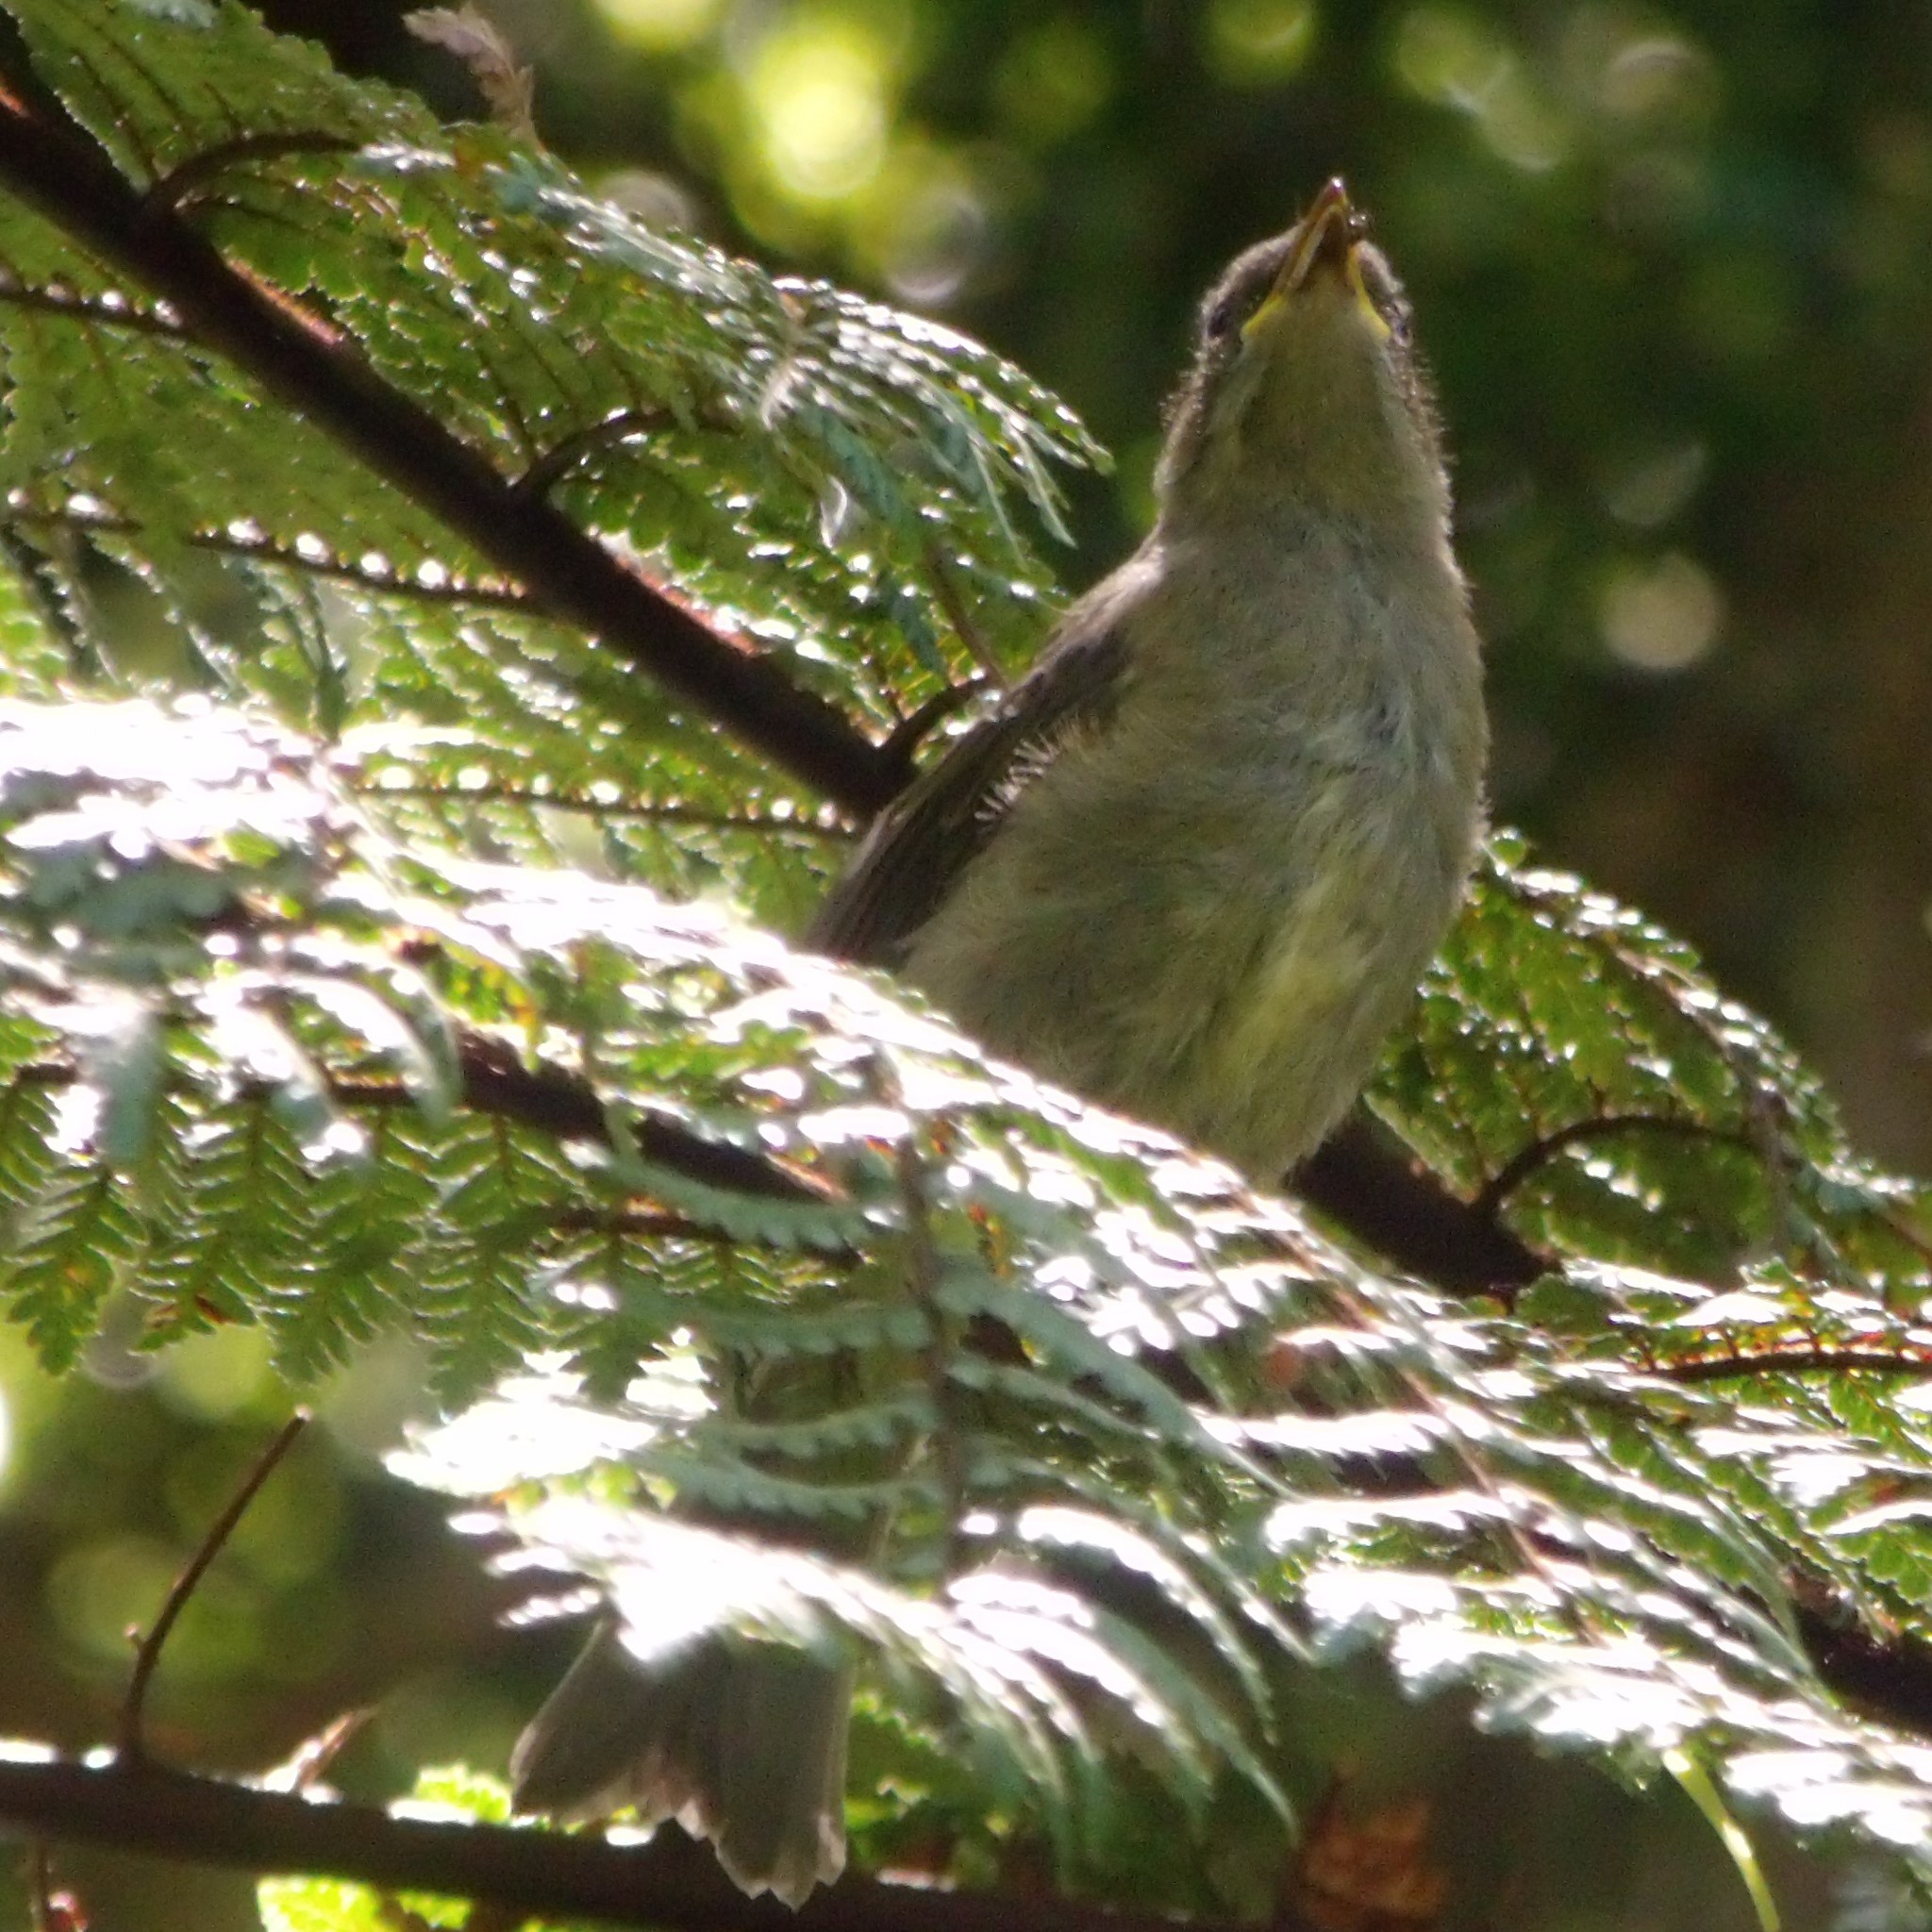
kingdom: Animalia
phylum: Chordata
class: Aves
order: Passeriformes
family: Meliphagidae
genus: Anthornis
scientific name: Anthornis melanura
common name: New zealand bellbird
